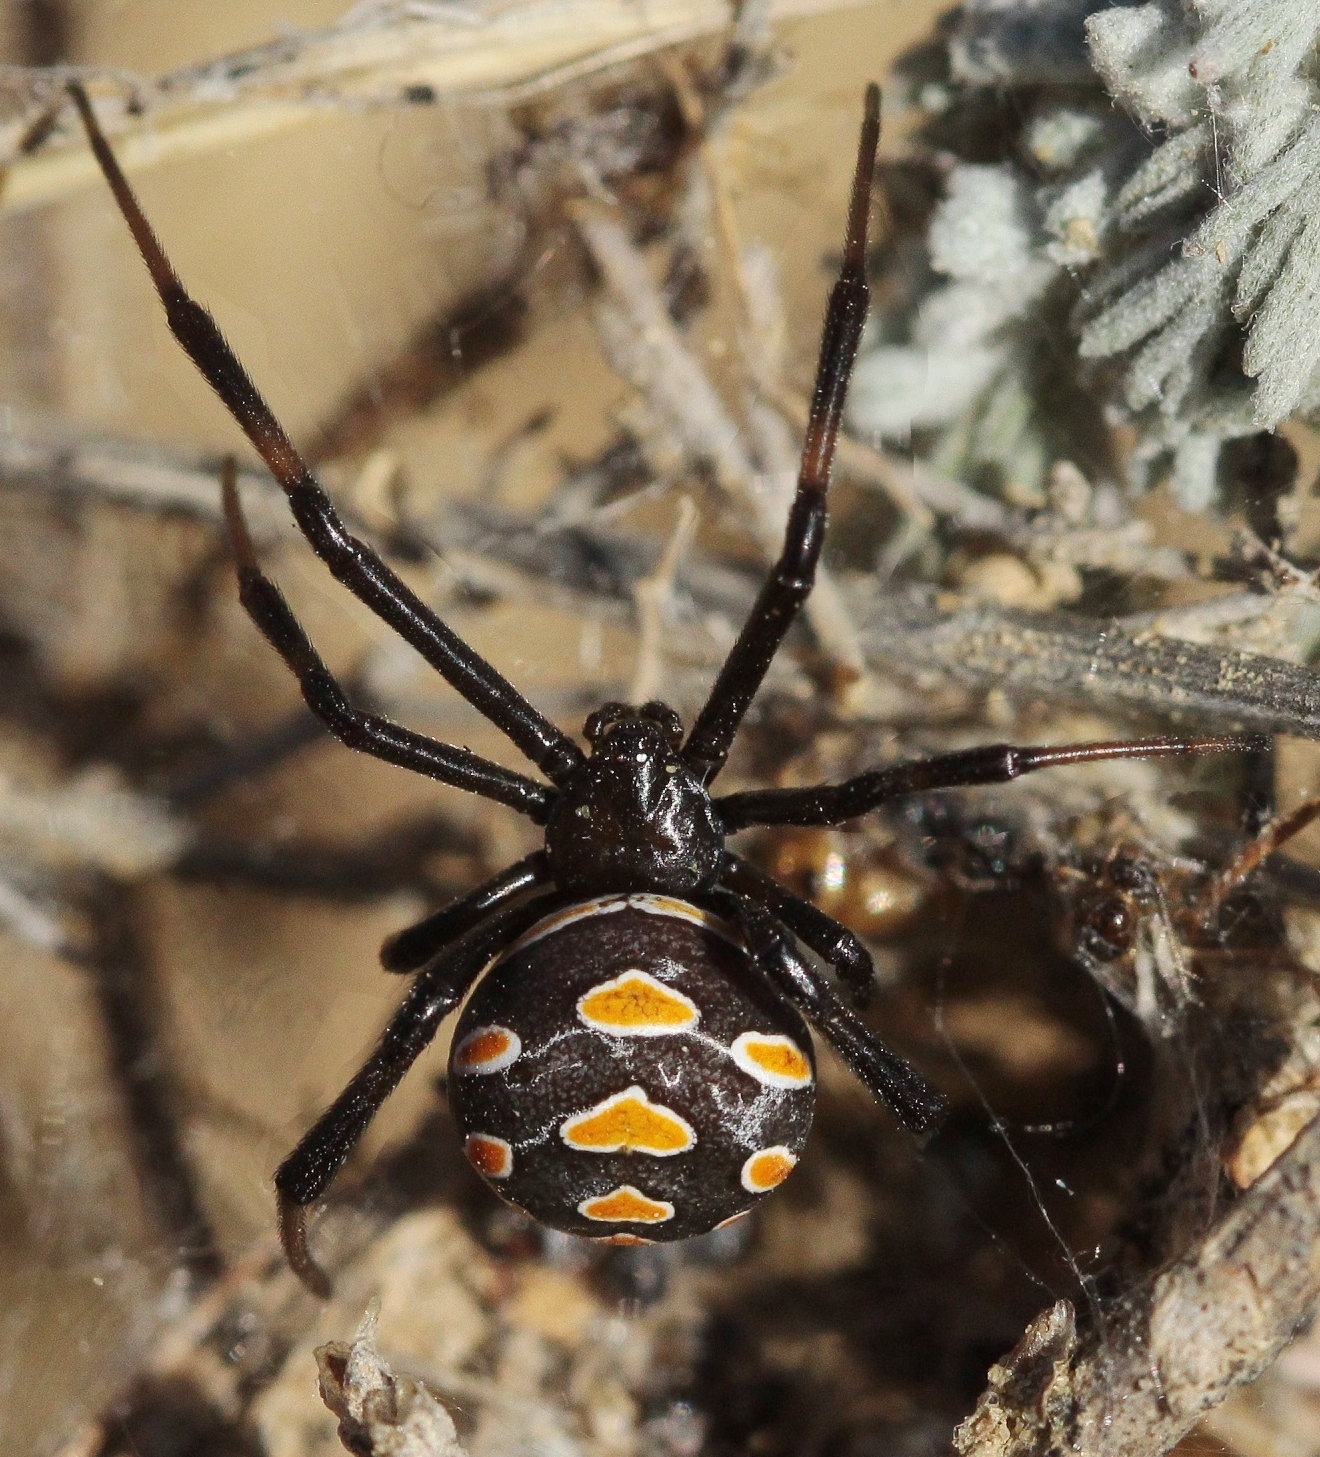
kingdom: Animalia
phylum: Arthropoda
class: Arachnida
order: Araneae
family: Theridiidae
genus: Latrodectus
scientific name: Latrodectus tredecimguttatus
